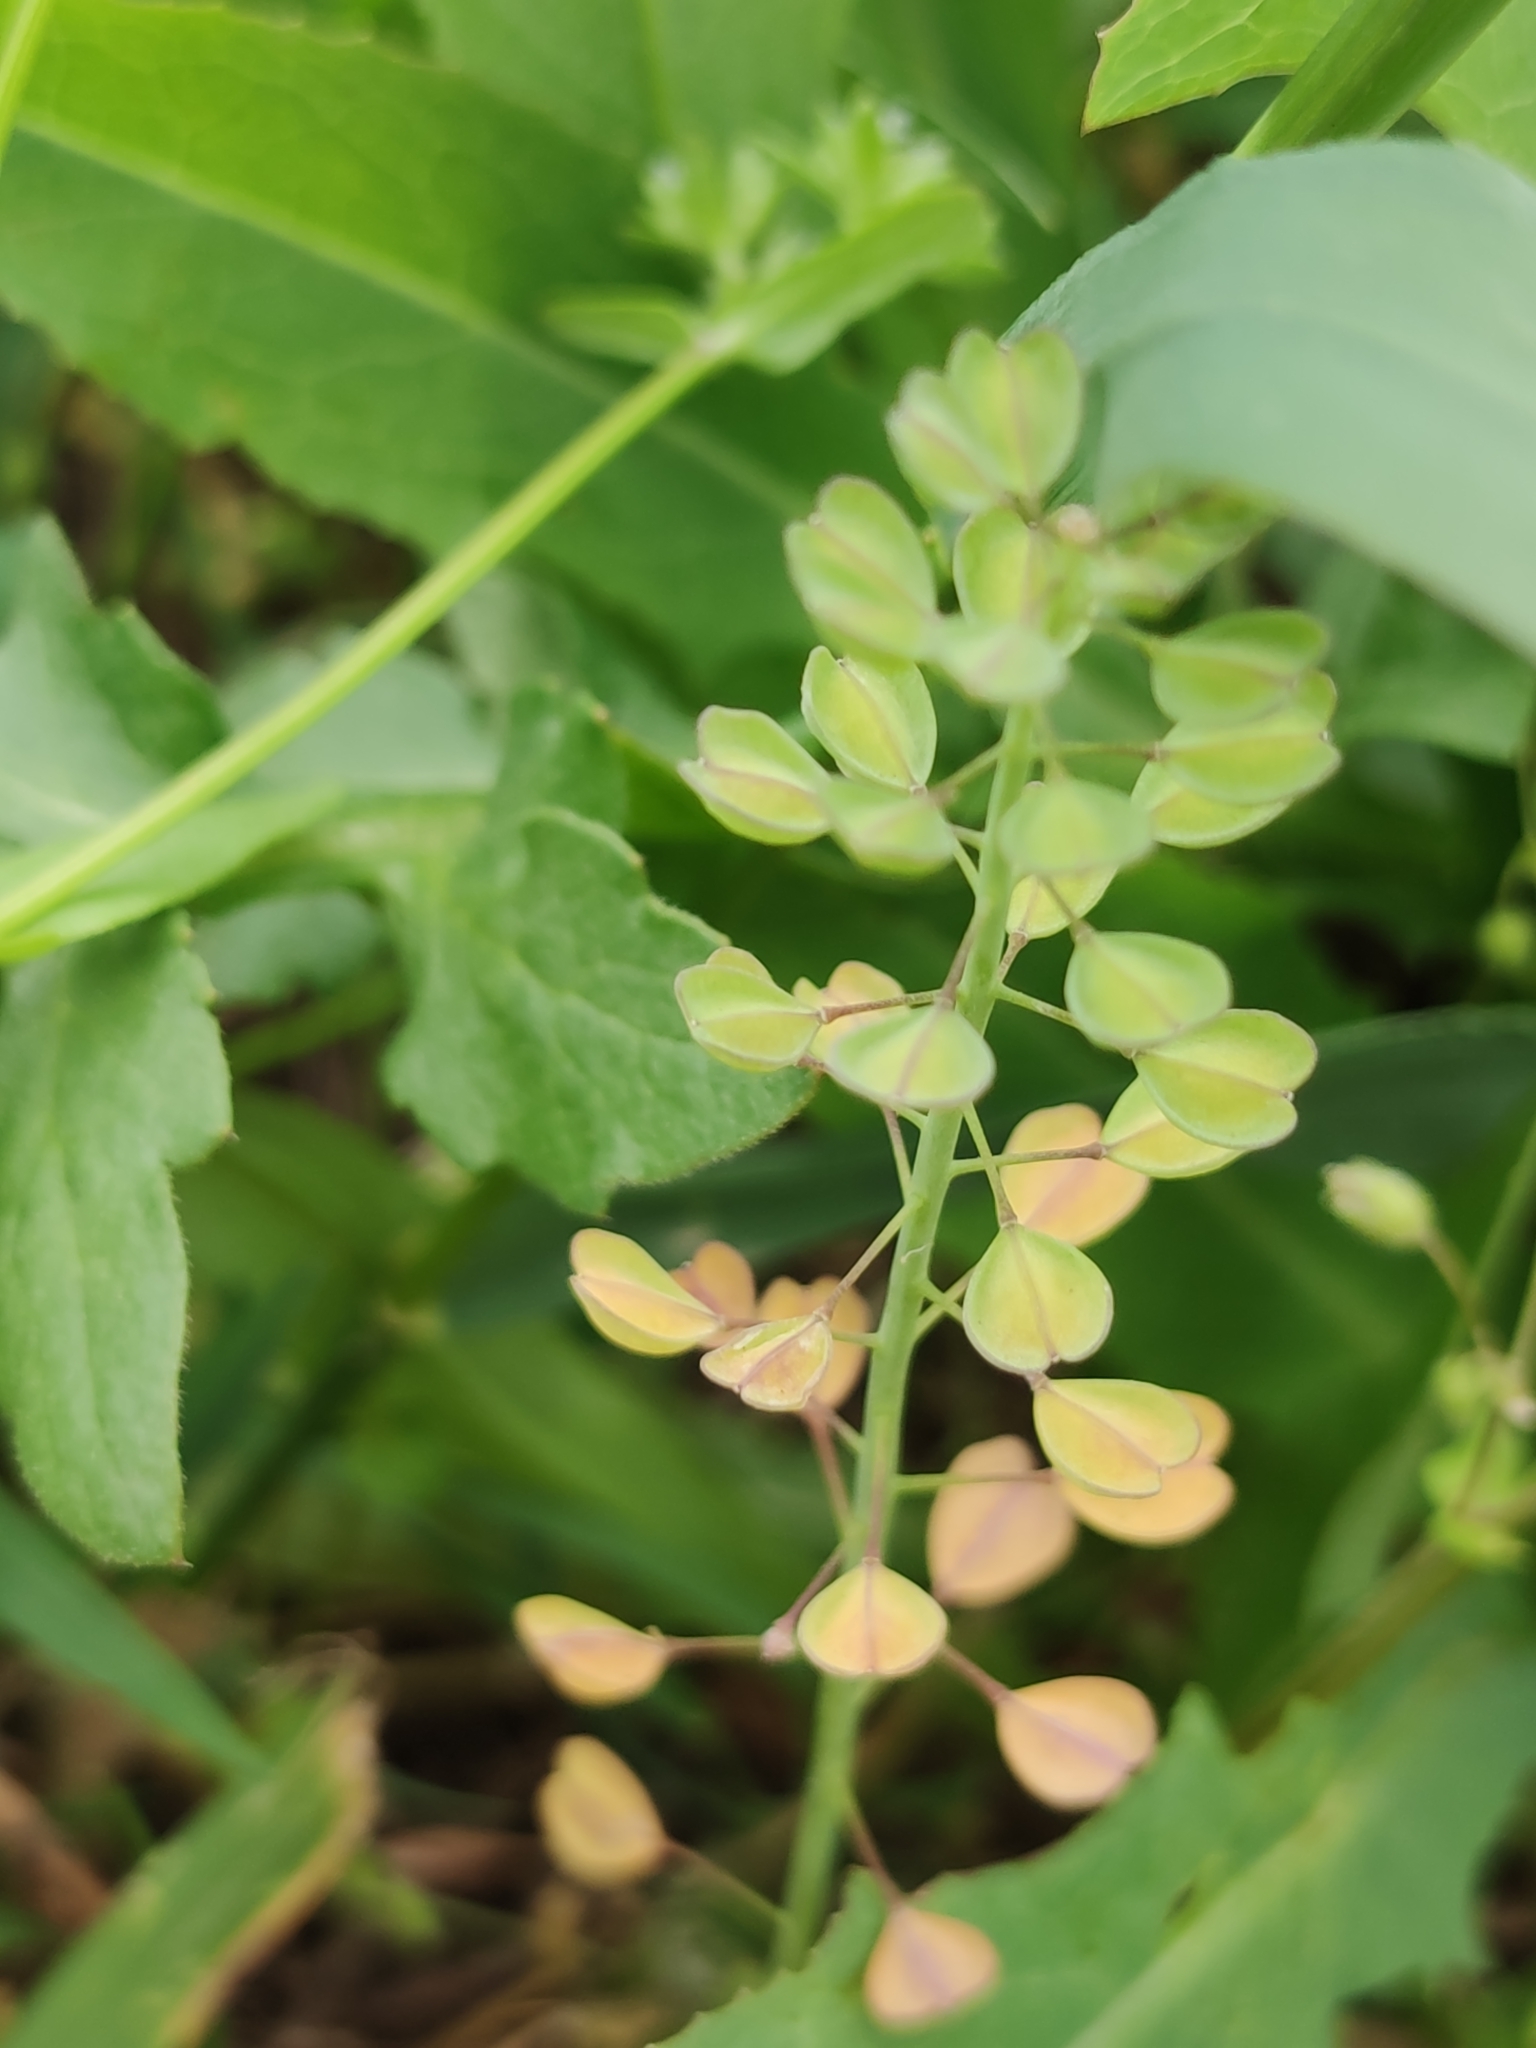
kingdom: Plantae
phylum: Tracheophyta
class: Magnoliopsida
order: Brassicales
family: Brassicaceae
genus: Noccaea
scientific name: Noccaea perfoliata
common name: Perfoliate pennycress
